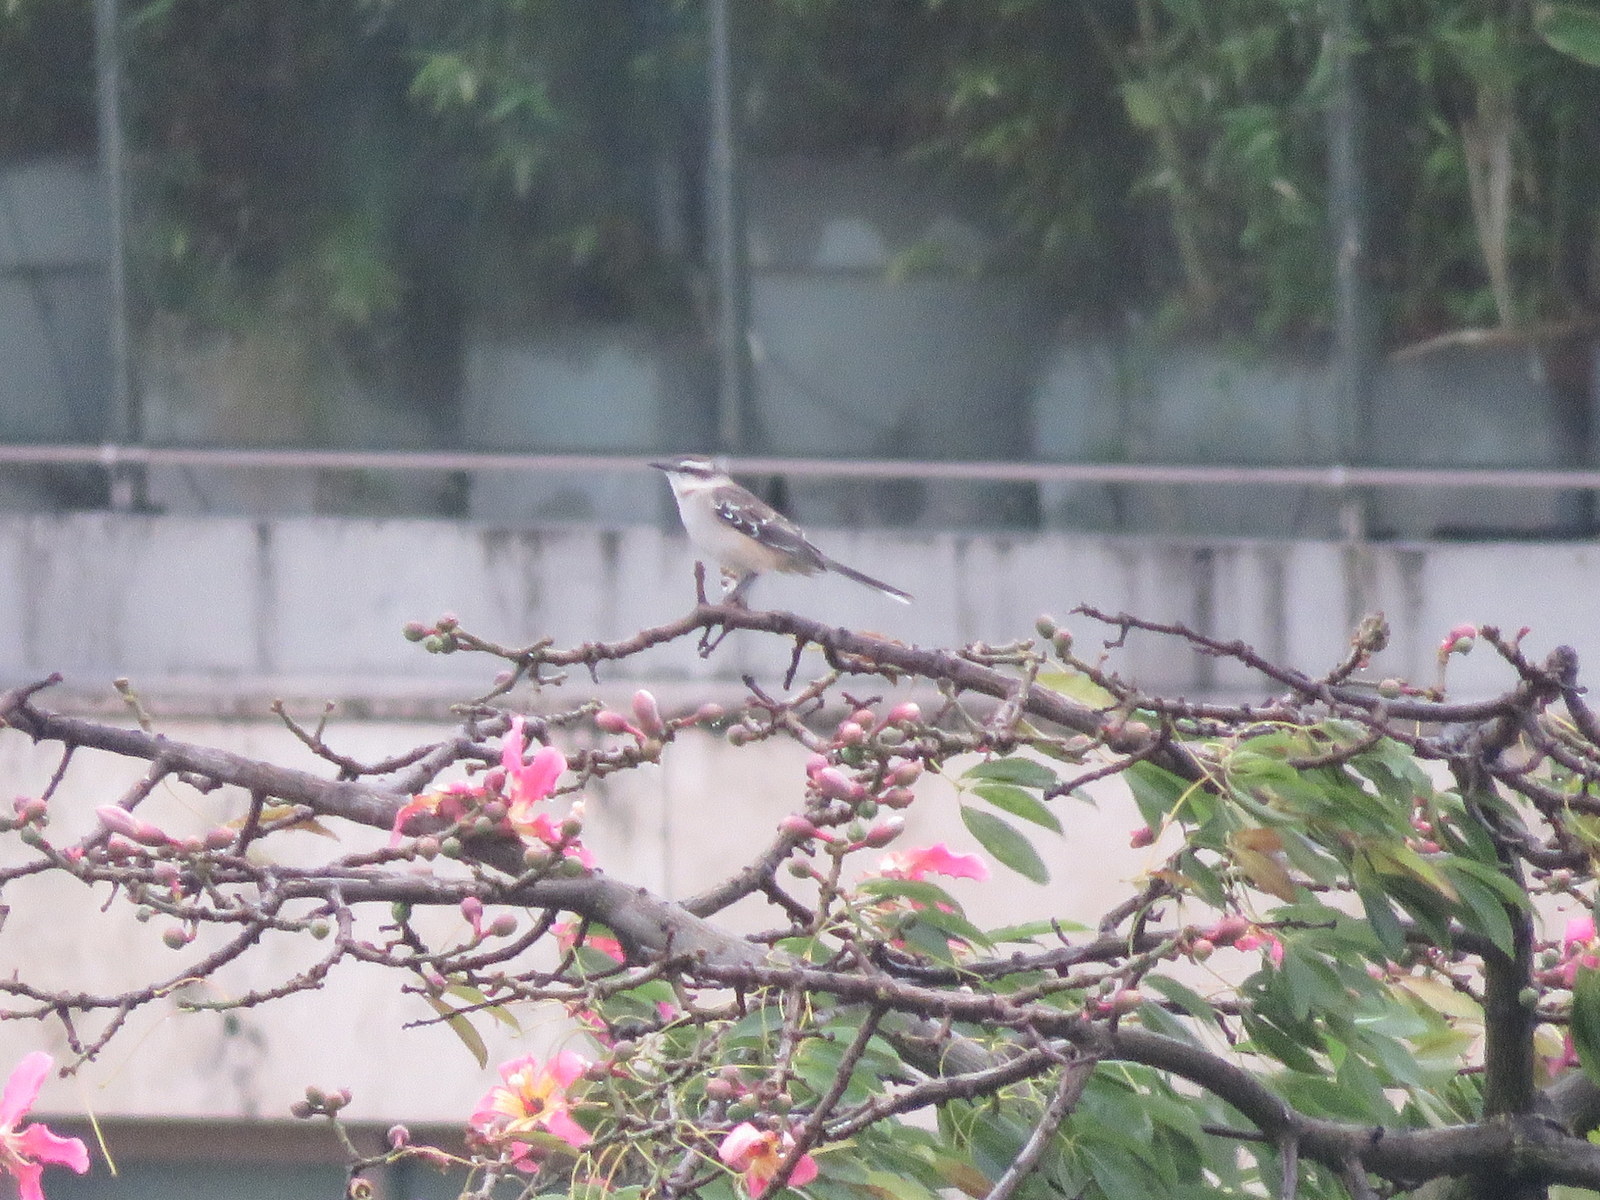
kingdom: Animalia
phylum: Chordata
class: Aves
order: Passeriformes
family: Mimidae
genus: Mimus
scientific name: Mimus saturninus
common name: Chalk-browed mockingbird
